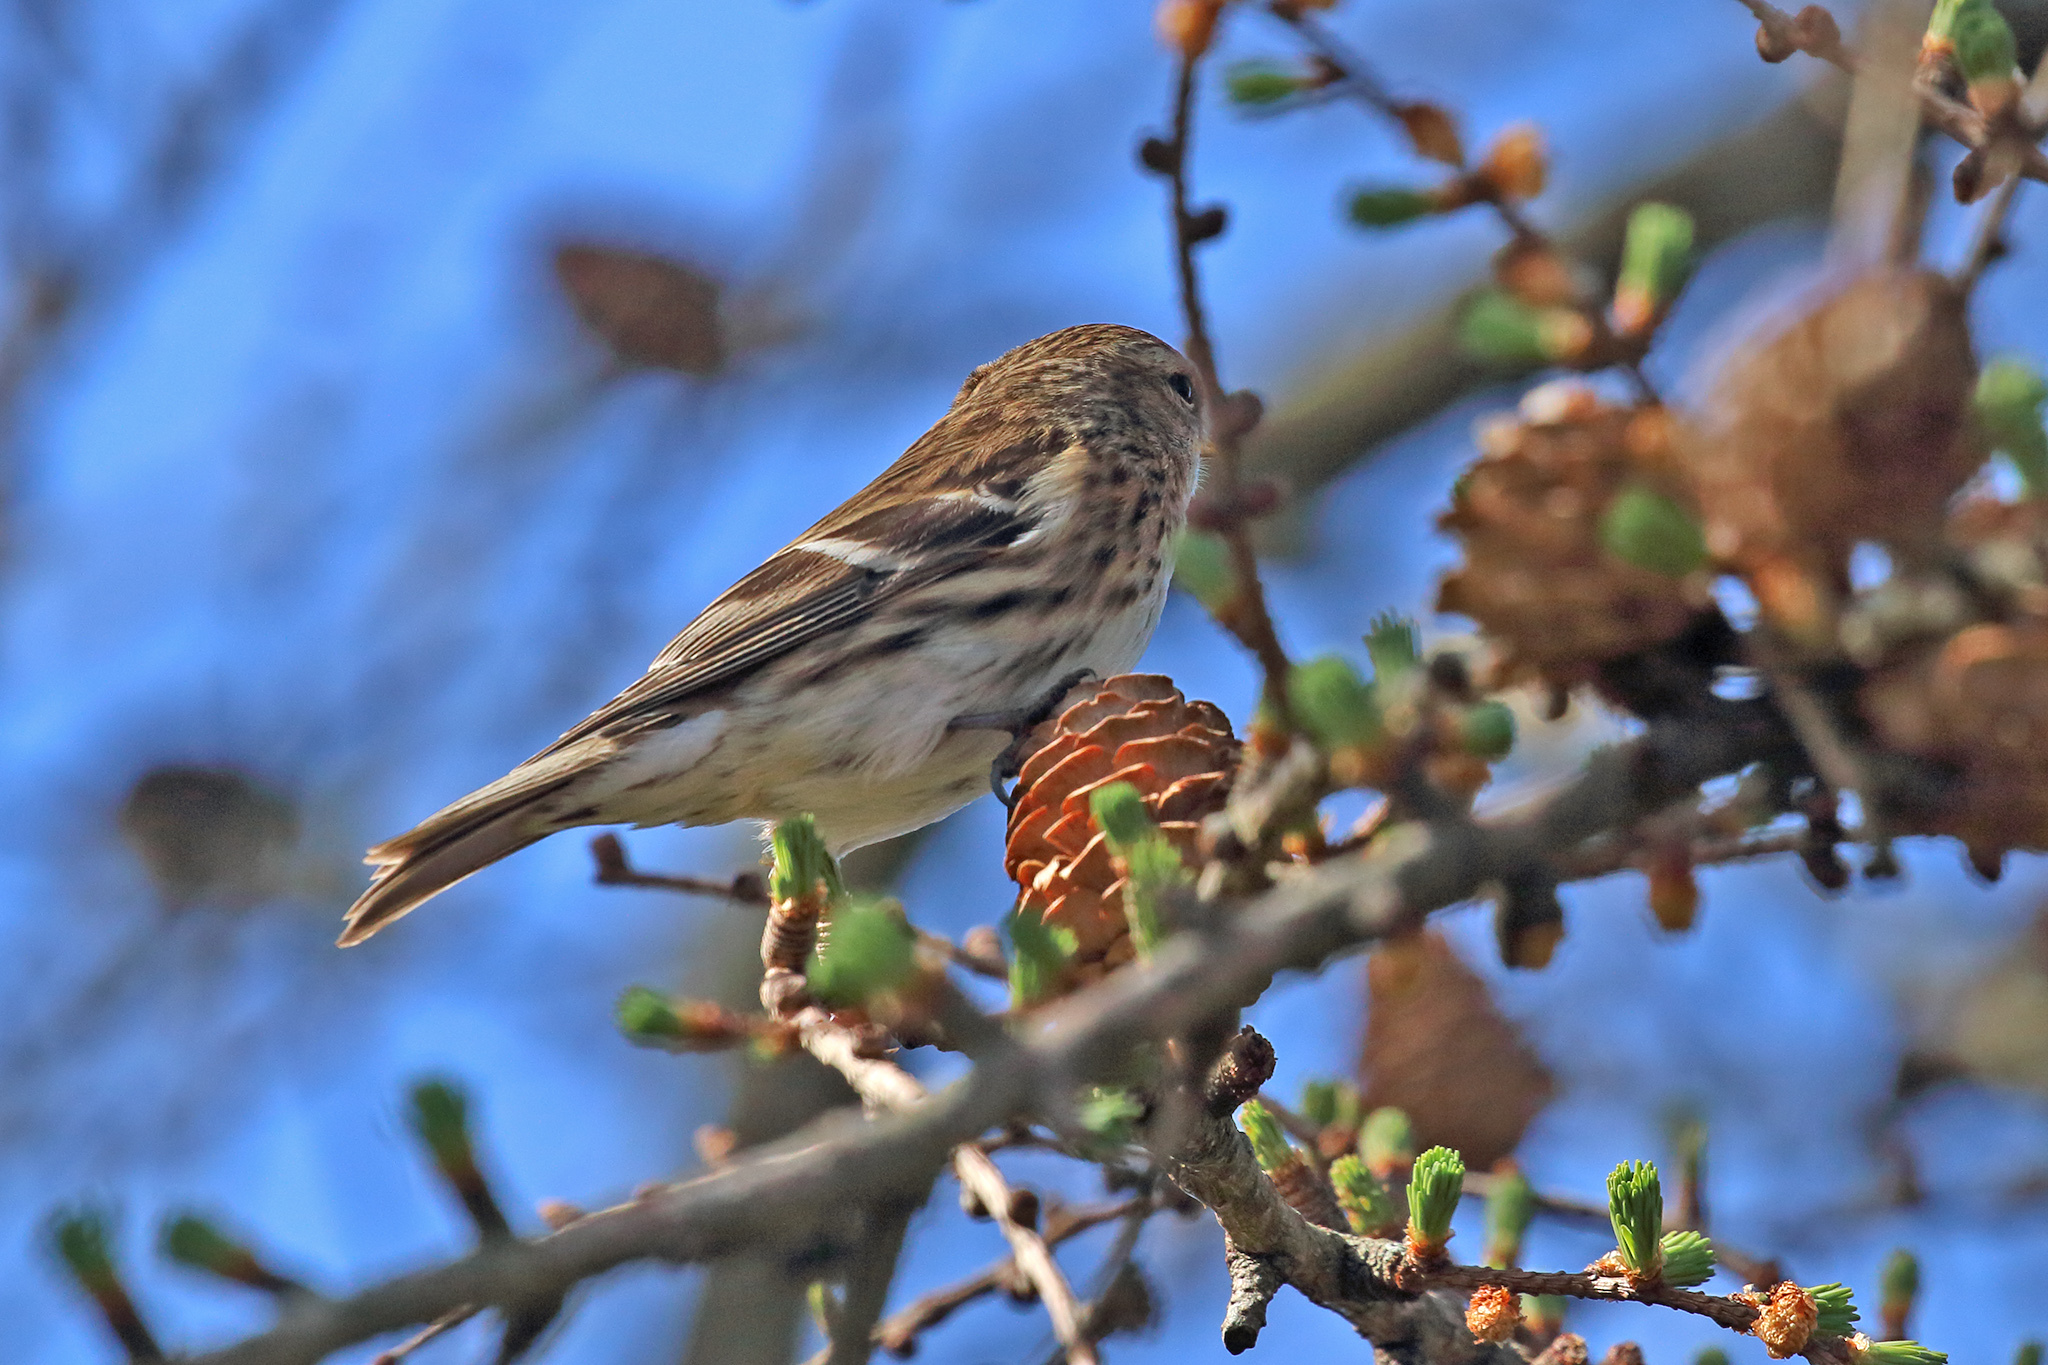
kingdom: Animalia
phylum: Chordata
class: Aves
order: Passeriformes
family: Fringillidae
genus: Acanthis
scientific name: Acanthis flammea
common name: Common redpoll
